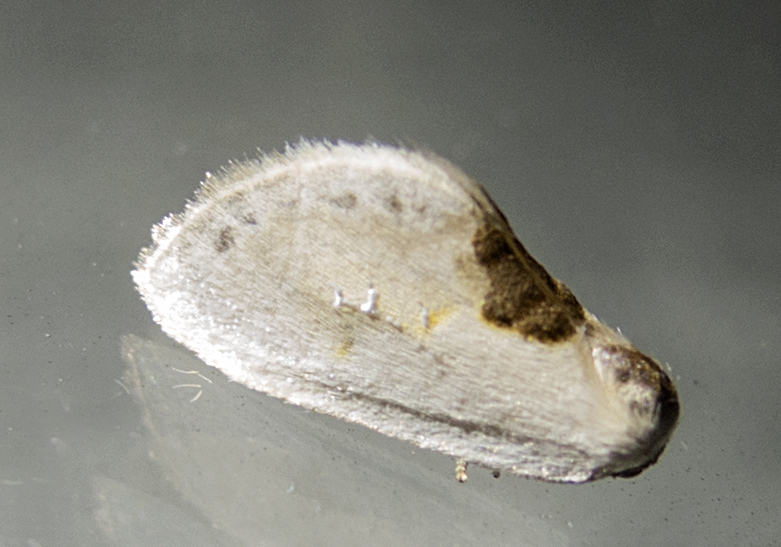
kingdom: Animalia
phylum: Arthropoda
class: Insecta
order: Lepidoptera
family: Drepanidae
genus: Cilix
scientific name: Cilix glaucata
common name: Chinese character
